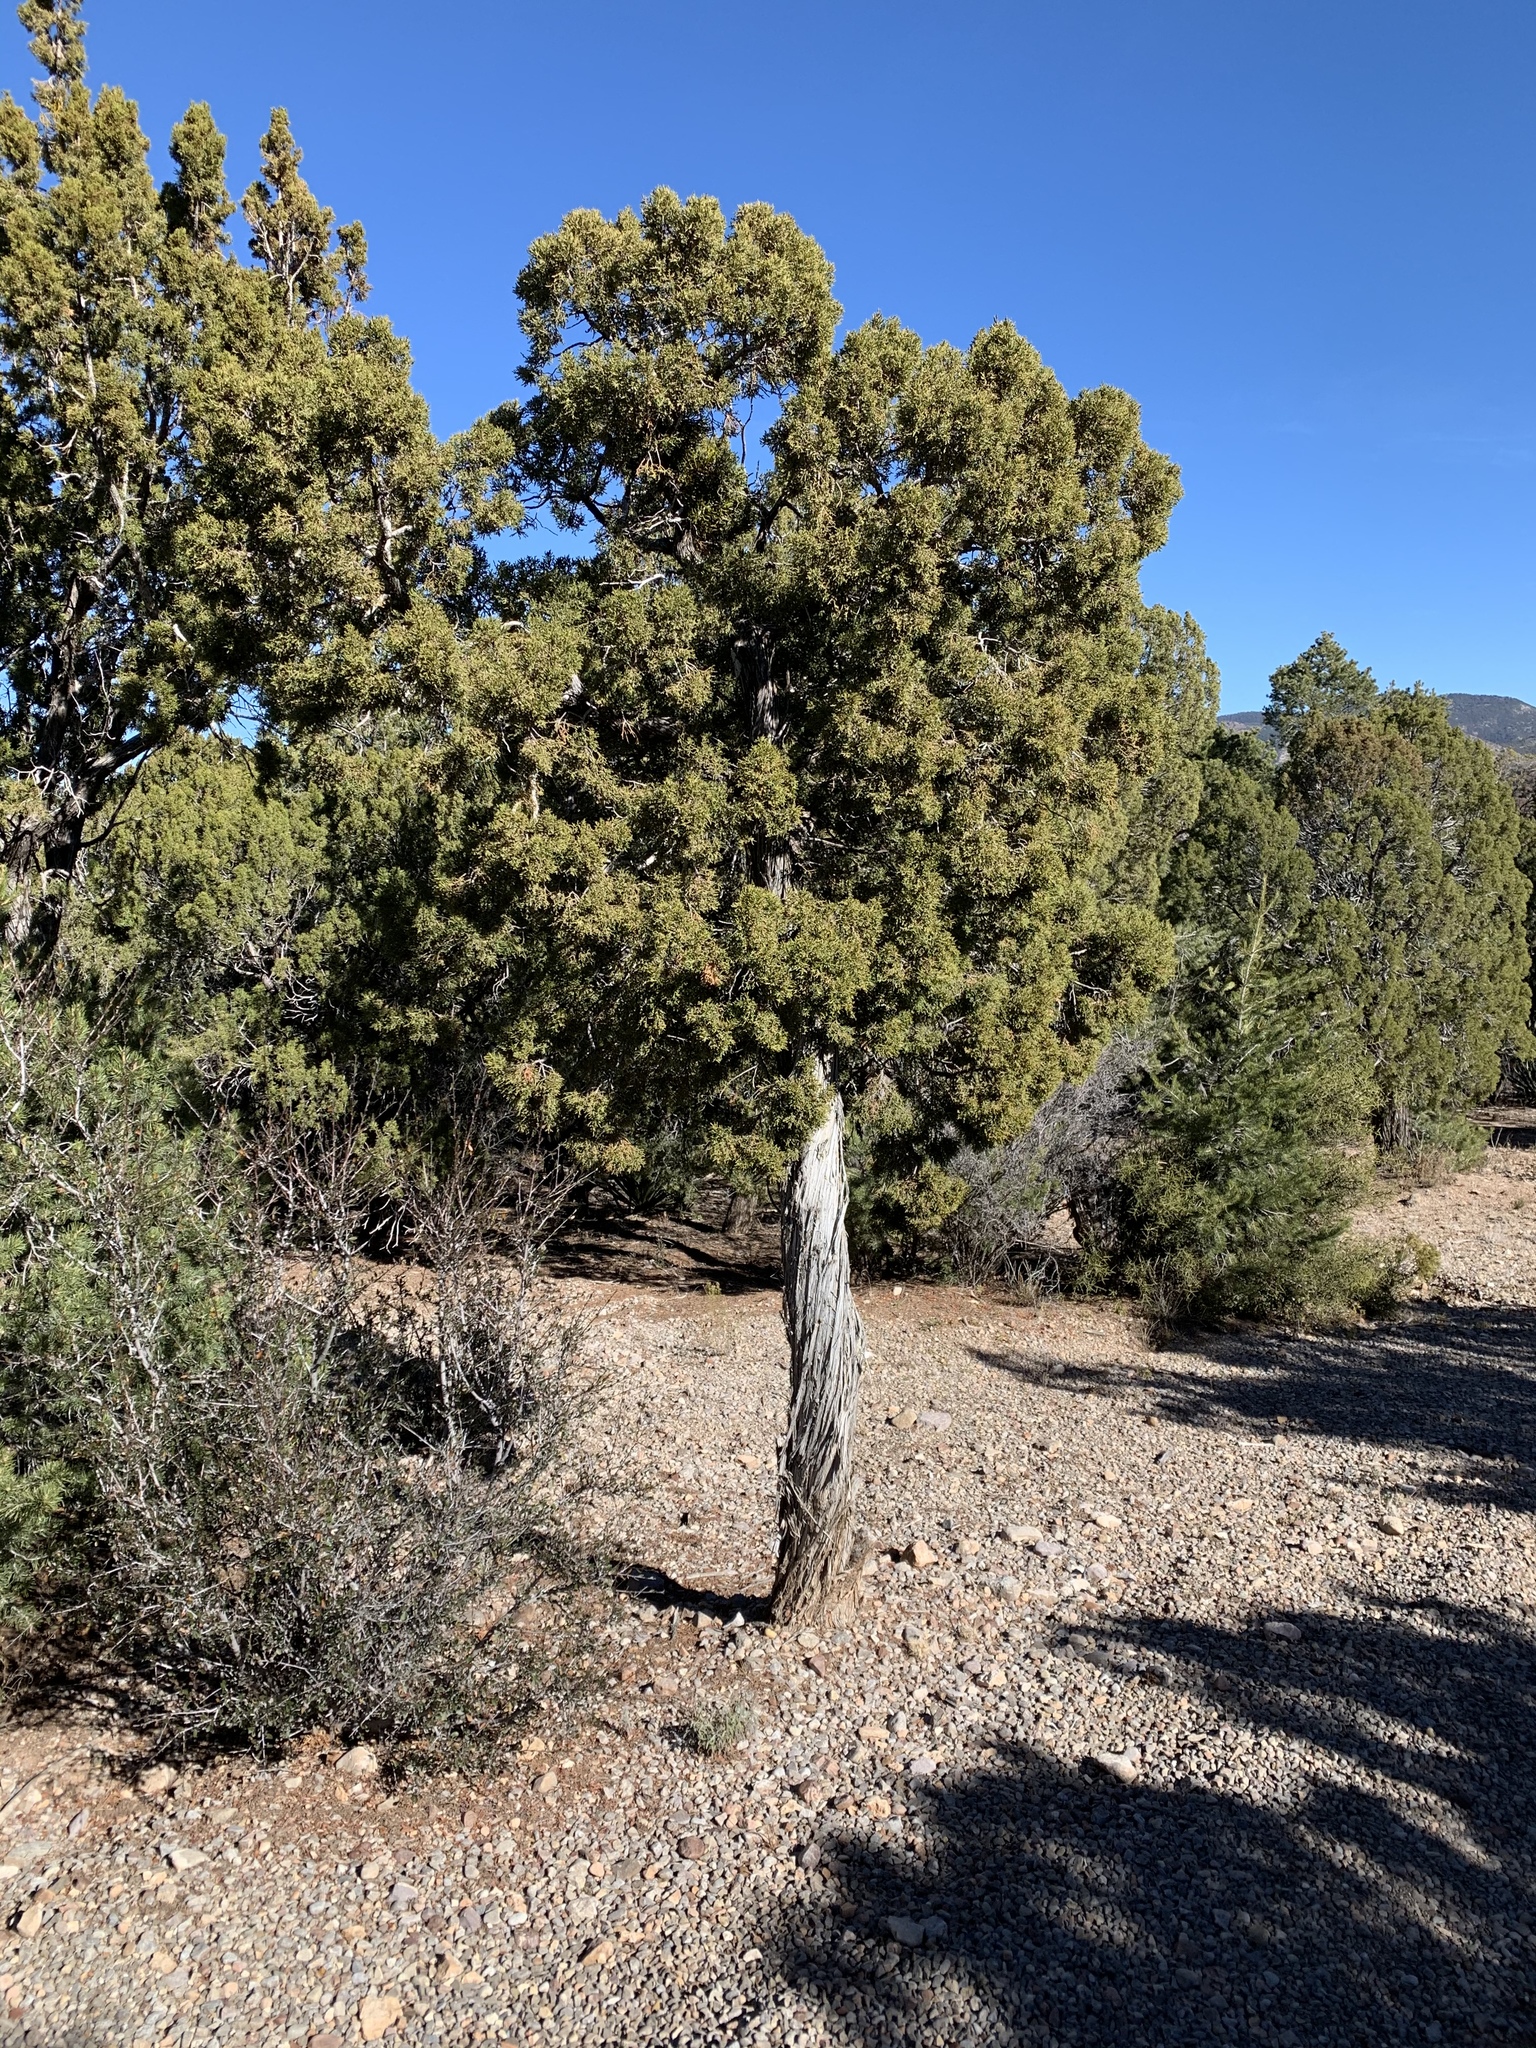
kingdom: Plantae
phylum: Tracheophyta
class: Pinopsida
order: Pinales
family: Cupressaceae
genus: Juniperus
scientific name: Juniperus monosperma
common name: One-seed juniper
